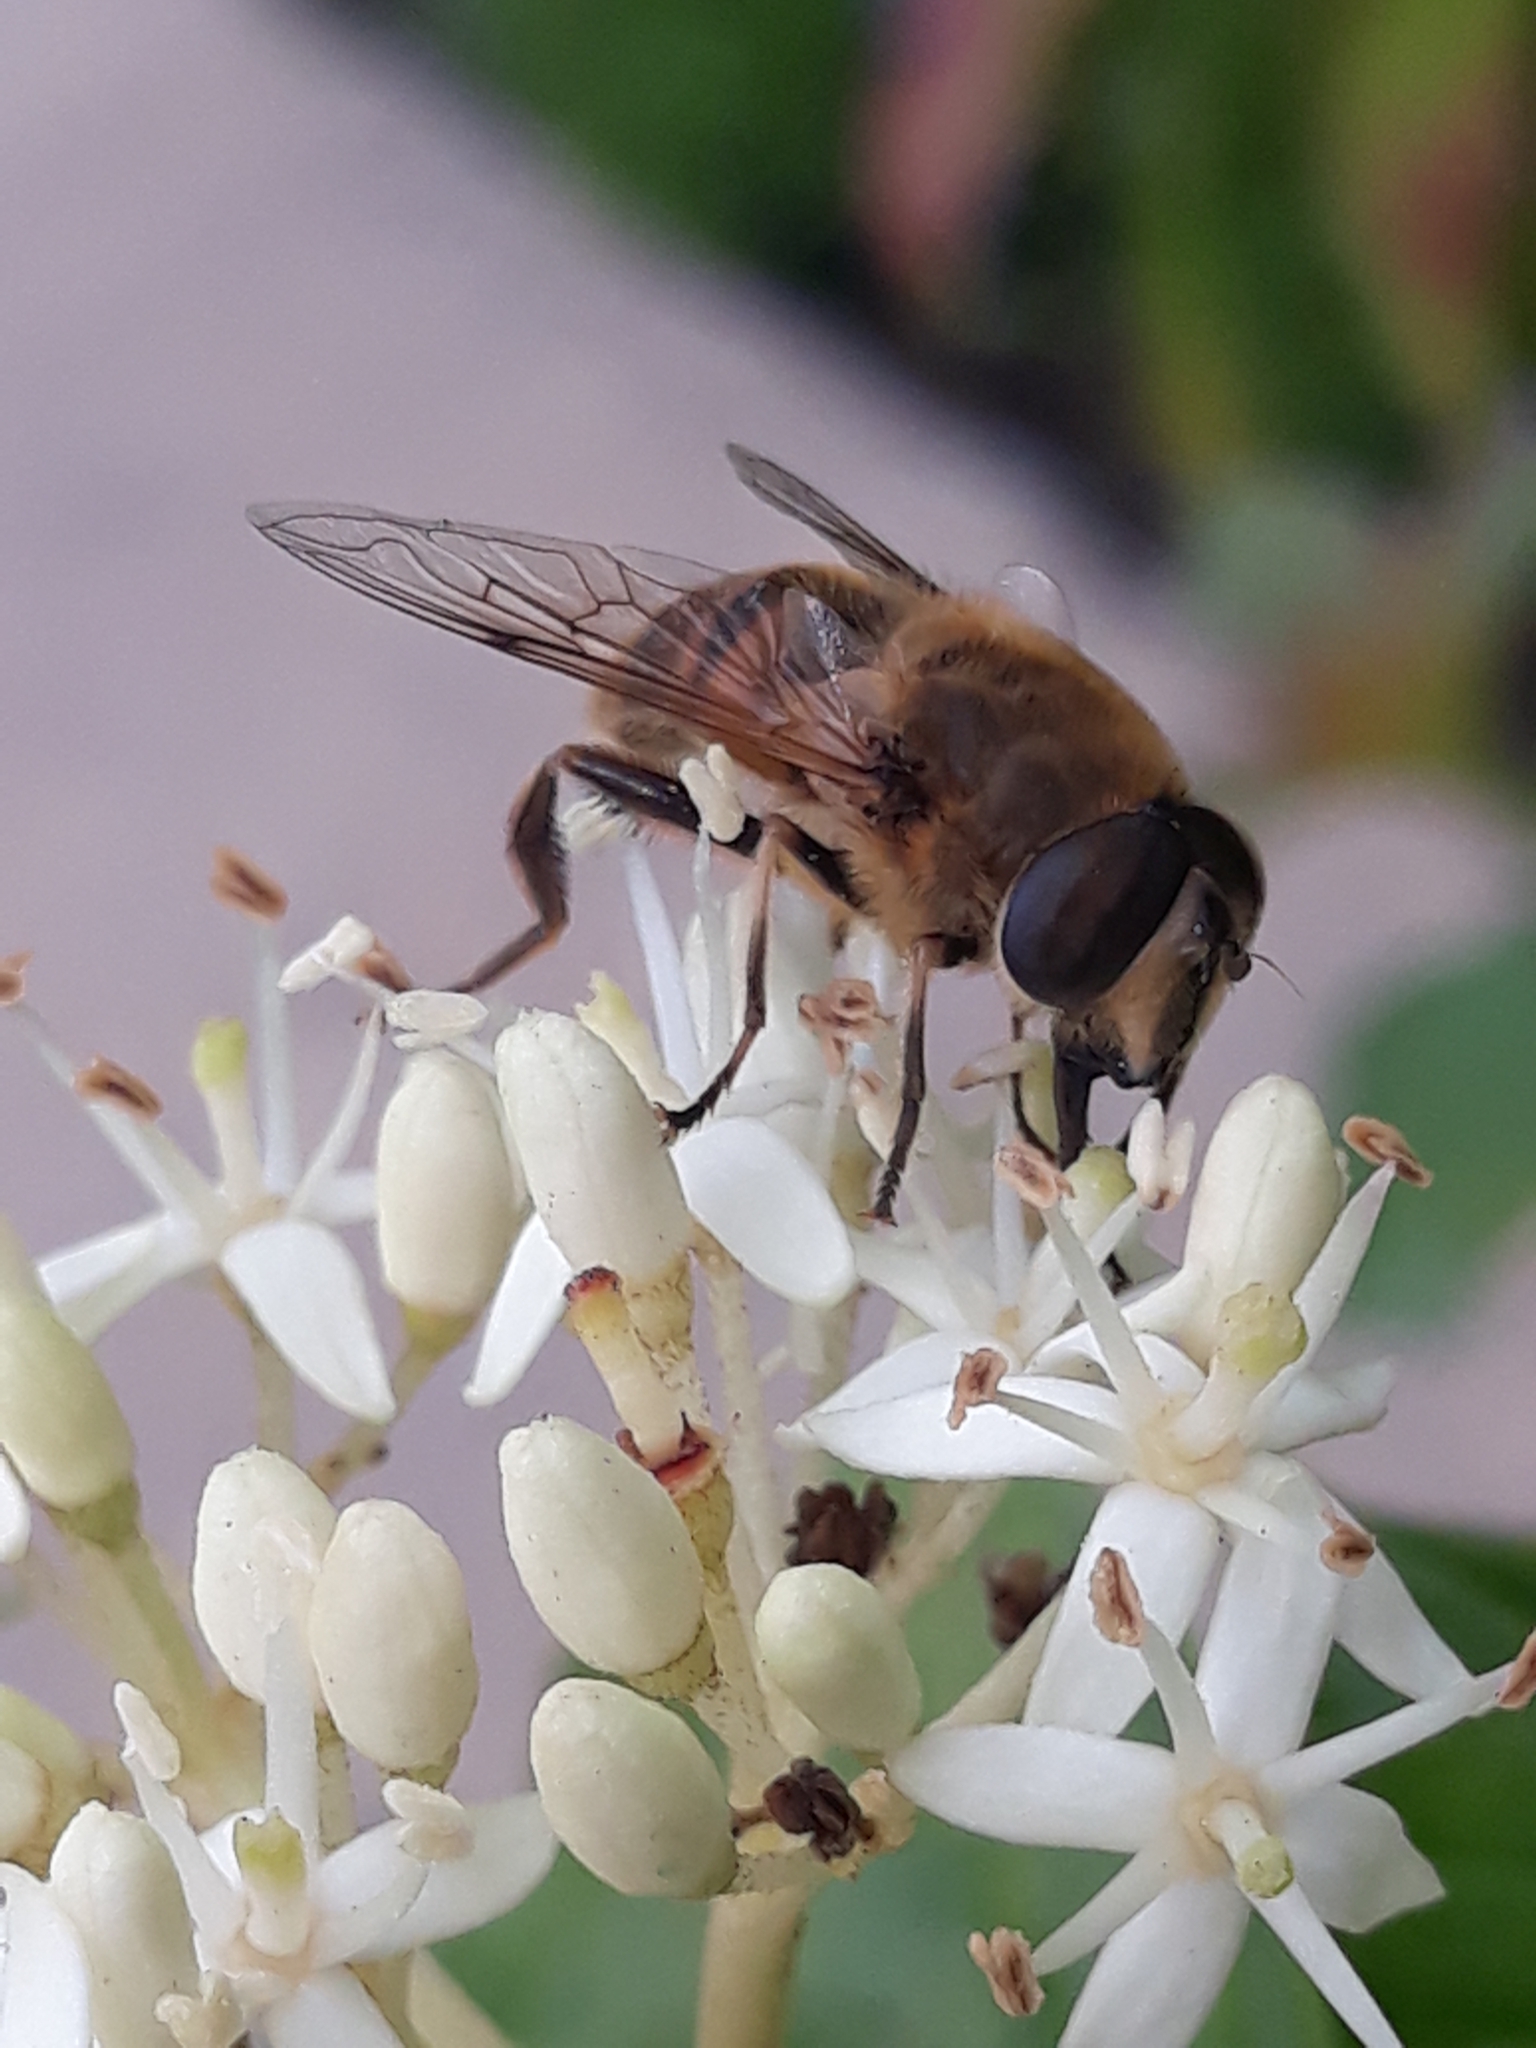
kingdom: Animalia
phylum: Arthropoda
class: Insecta
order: Diptera
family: Syrphidae
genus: Eristalis
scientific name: Eristalis tenax
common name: Drone fly
